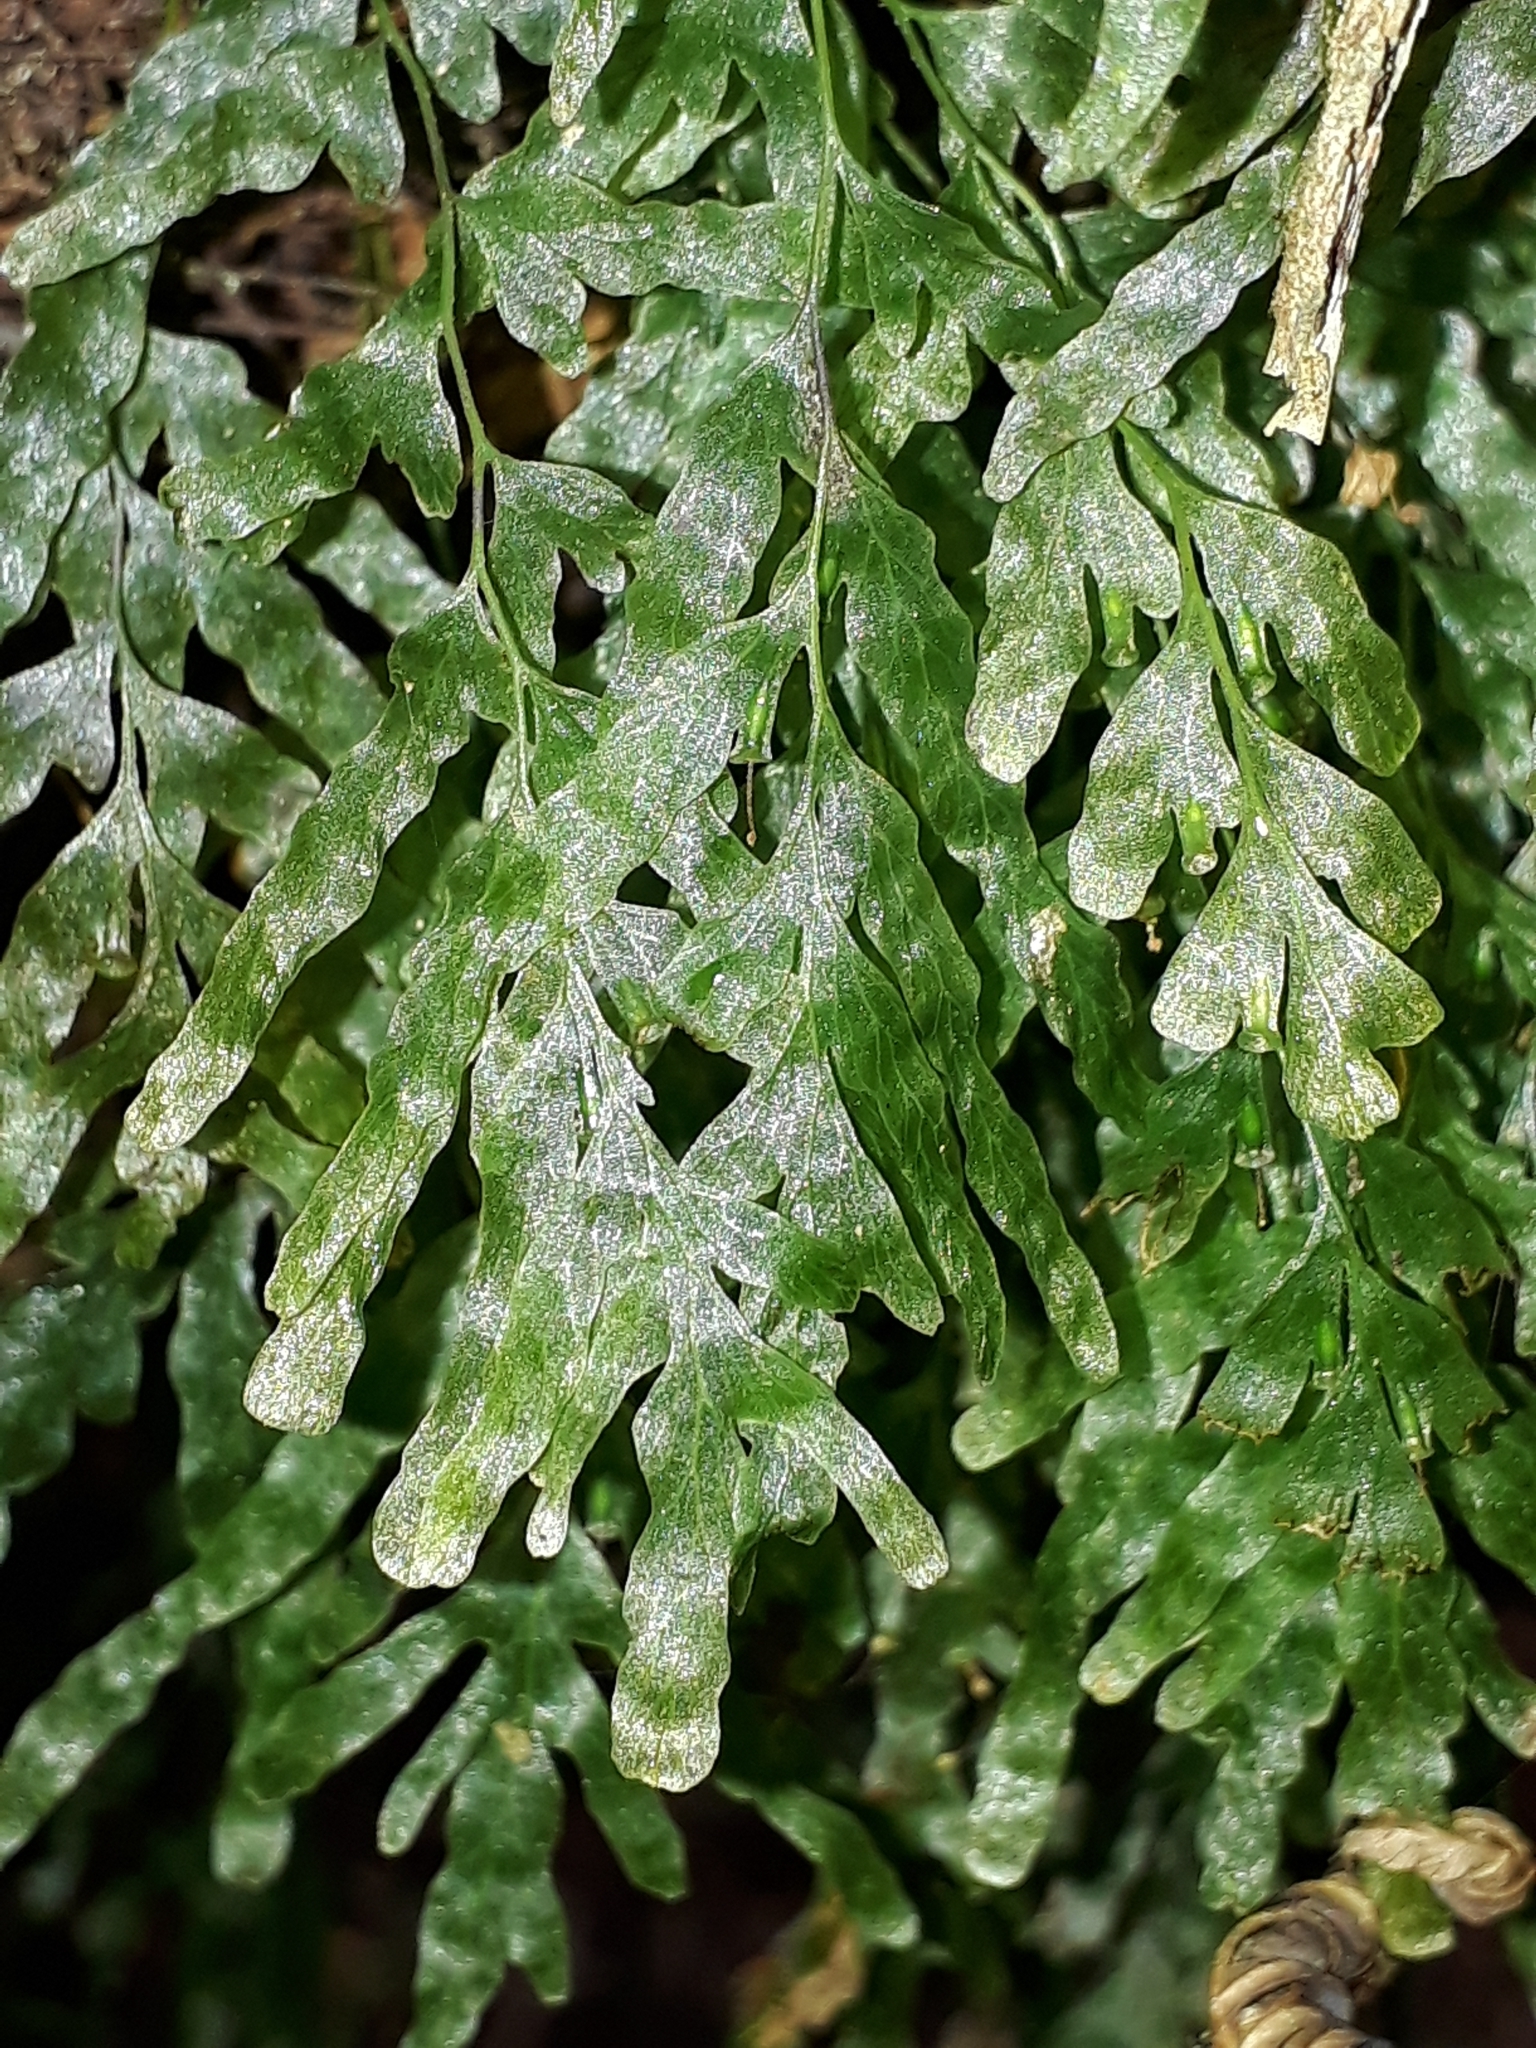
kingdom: Plantae
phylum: Tracheophyta
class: Polypodiopsida
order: Hymenophyllales
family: Hymenophyllaceae
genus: Polyphlebium
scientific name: Polyphlebium venosum
